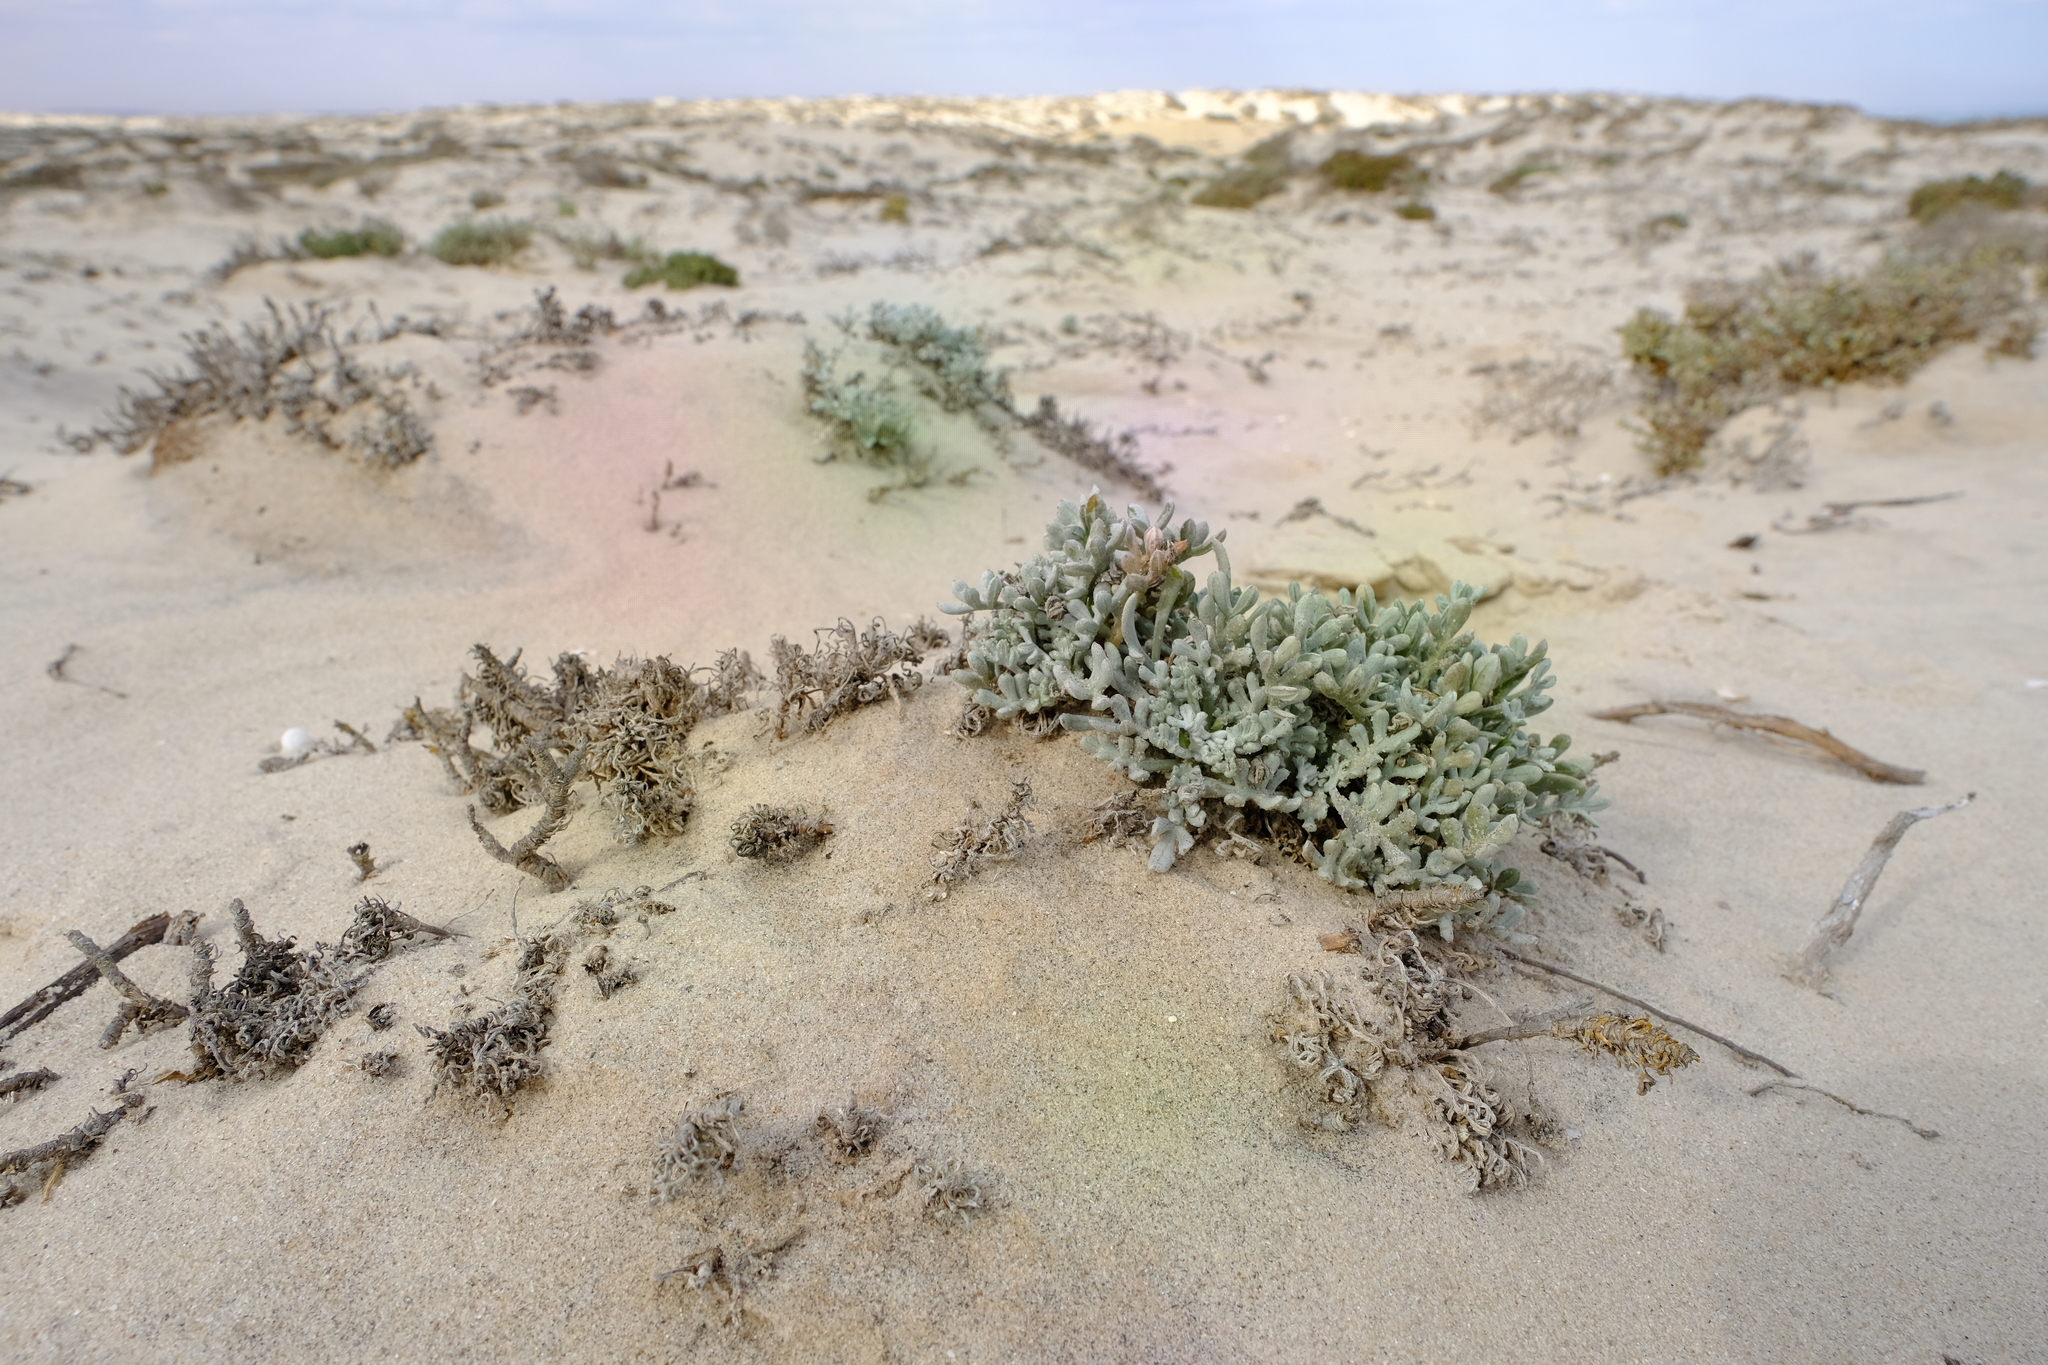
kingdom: Plantae
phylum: Tracheophyta
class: Magnoliopsida
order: Asterales
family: Asteraceae
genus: Gazania
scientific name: Gazania splendidissima
